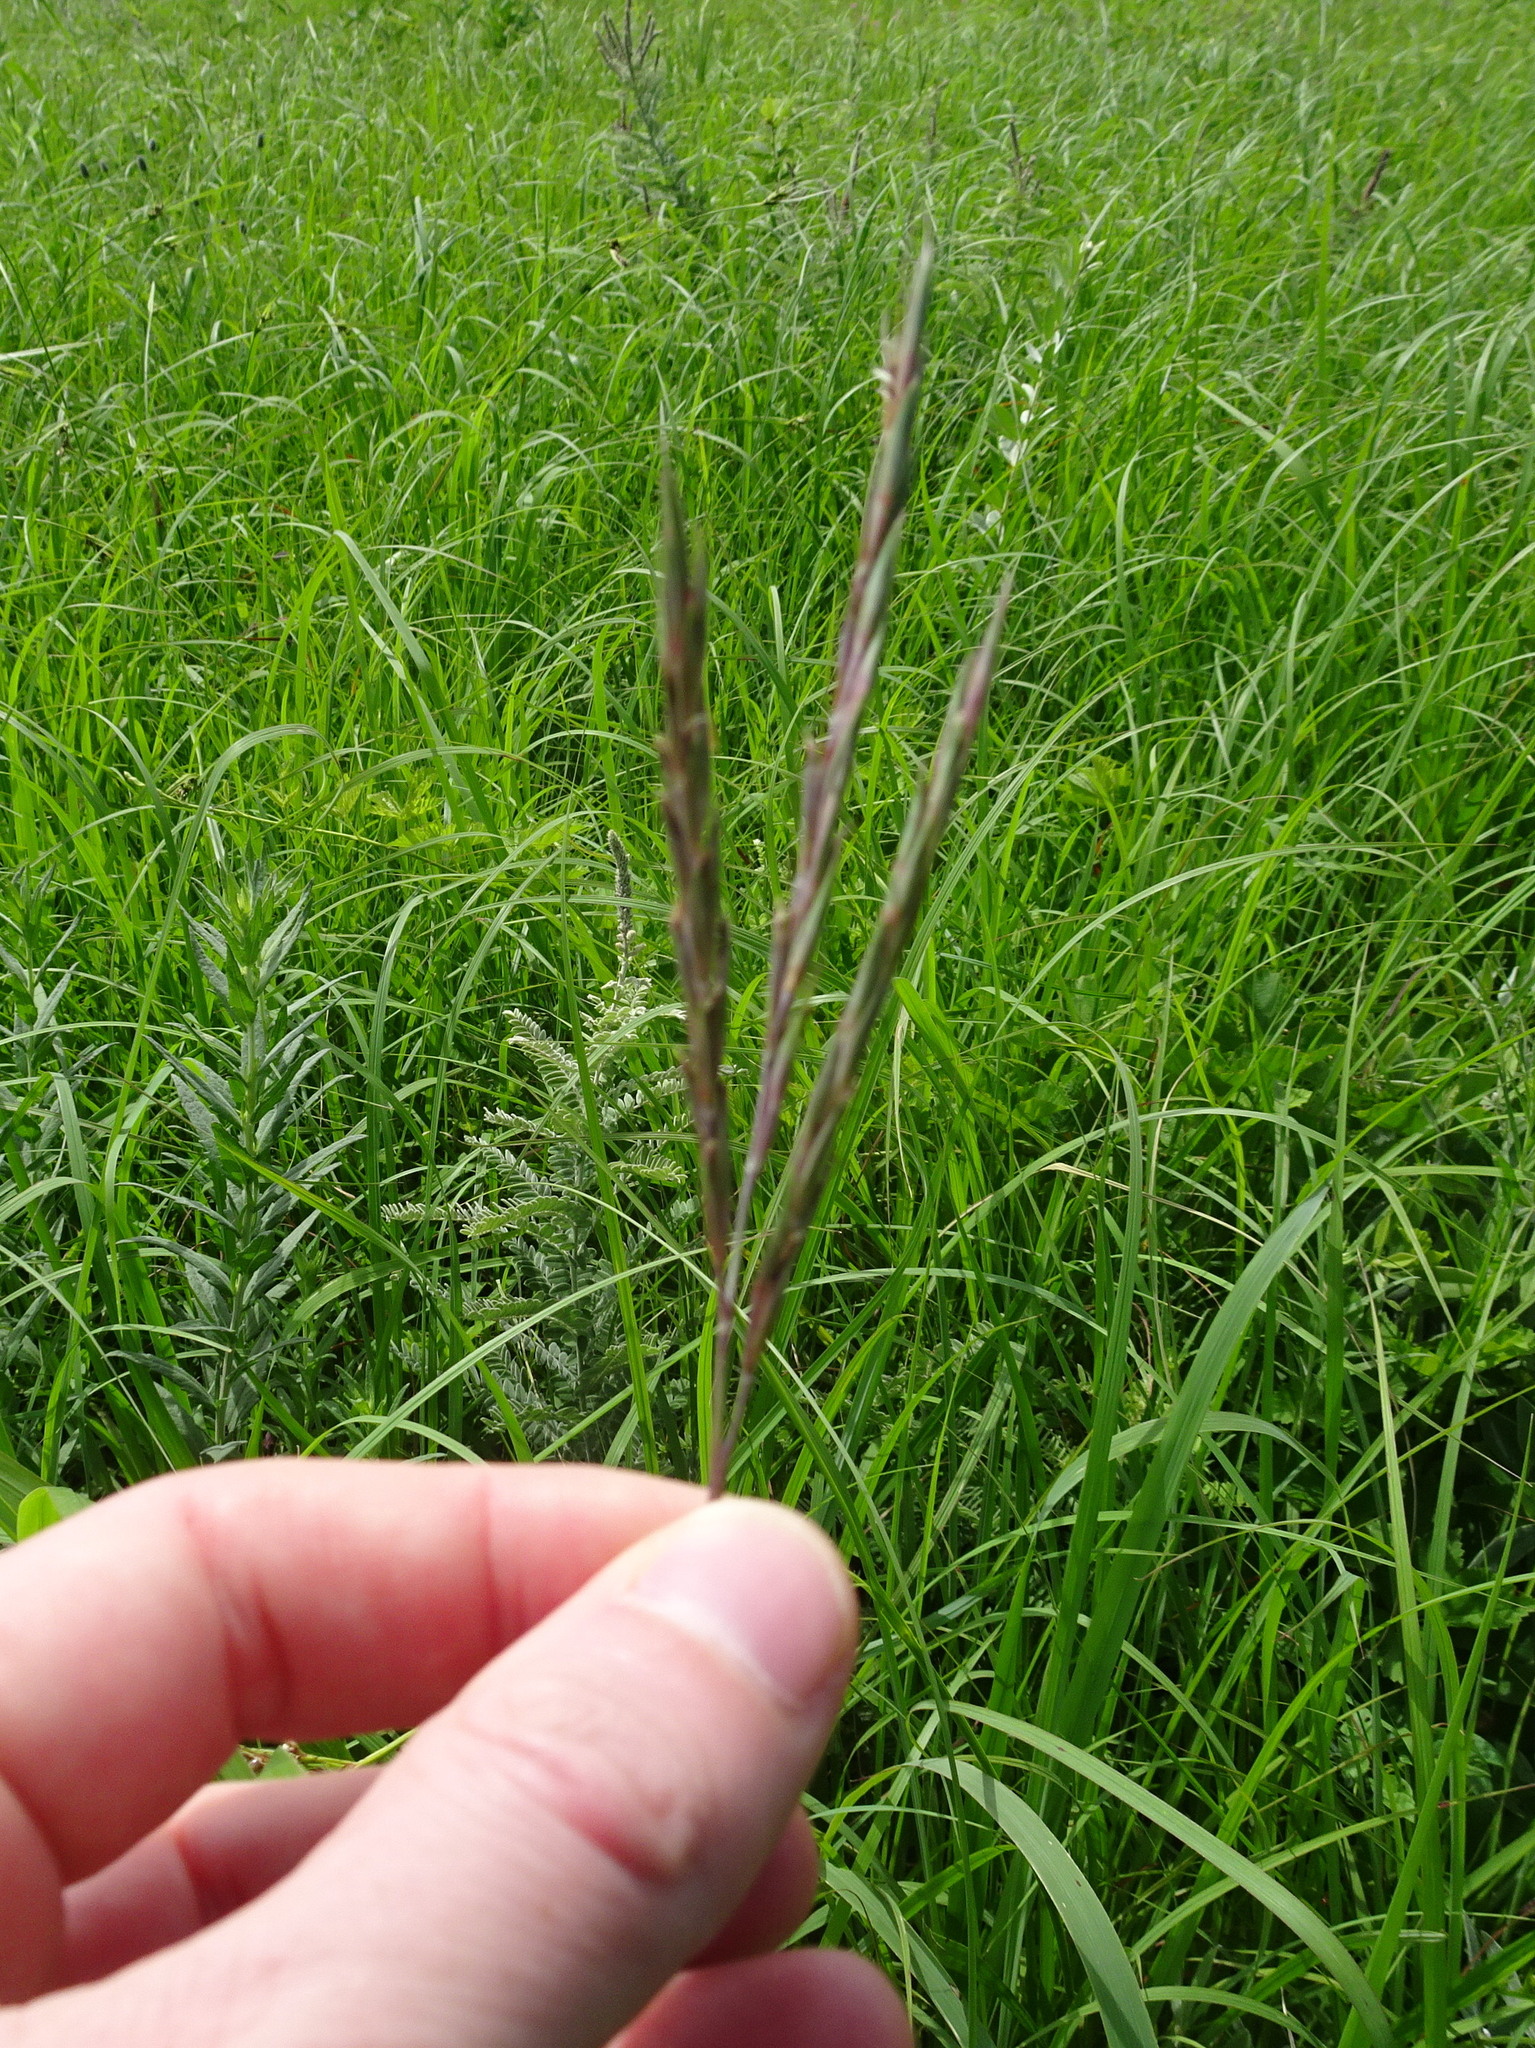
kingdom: Plantae
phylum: Tracheophyta
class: Liliopsida
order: Poales
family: Poaceae
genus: Andropogon
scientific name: Andropogon gerardi
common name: Big bluestem
